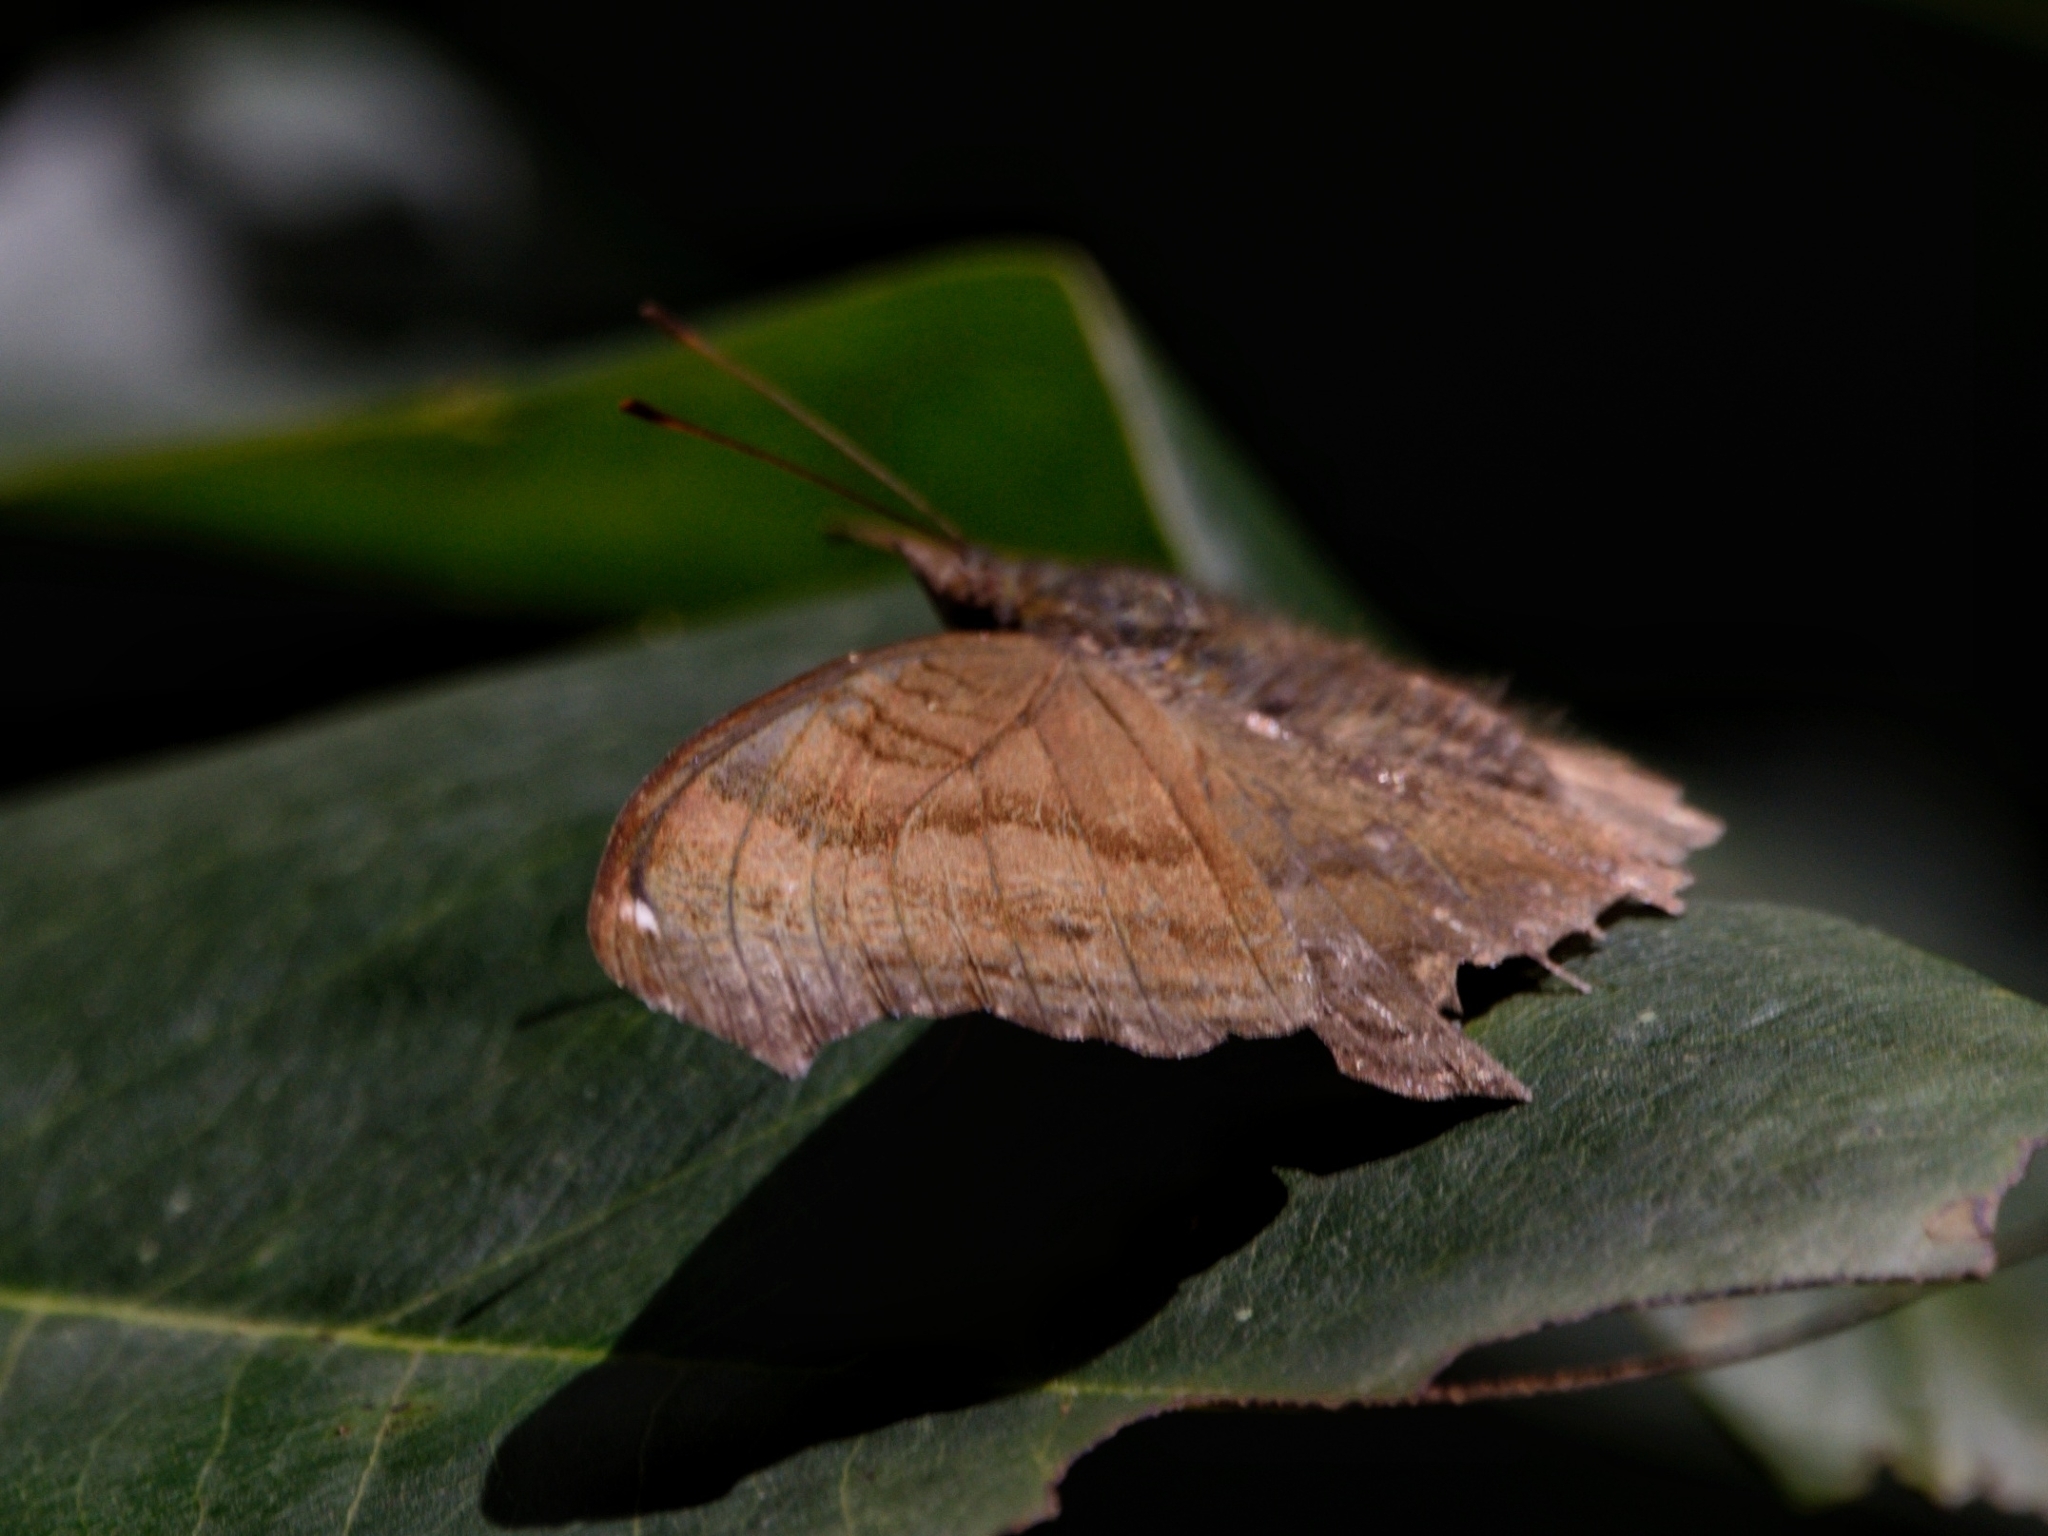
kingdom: Animalia
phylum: Arthropoda
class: Insecta
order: Lepidoptera
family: Nymphalidae
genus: Junonia
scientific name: Junonia iphita
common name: Chocolate pansy
